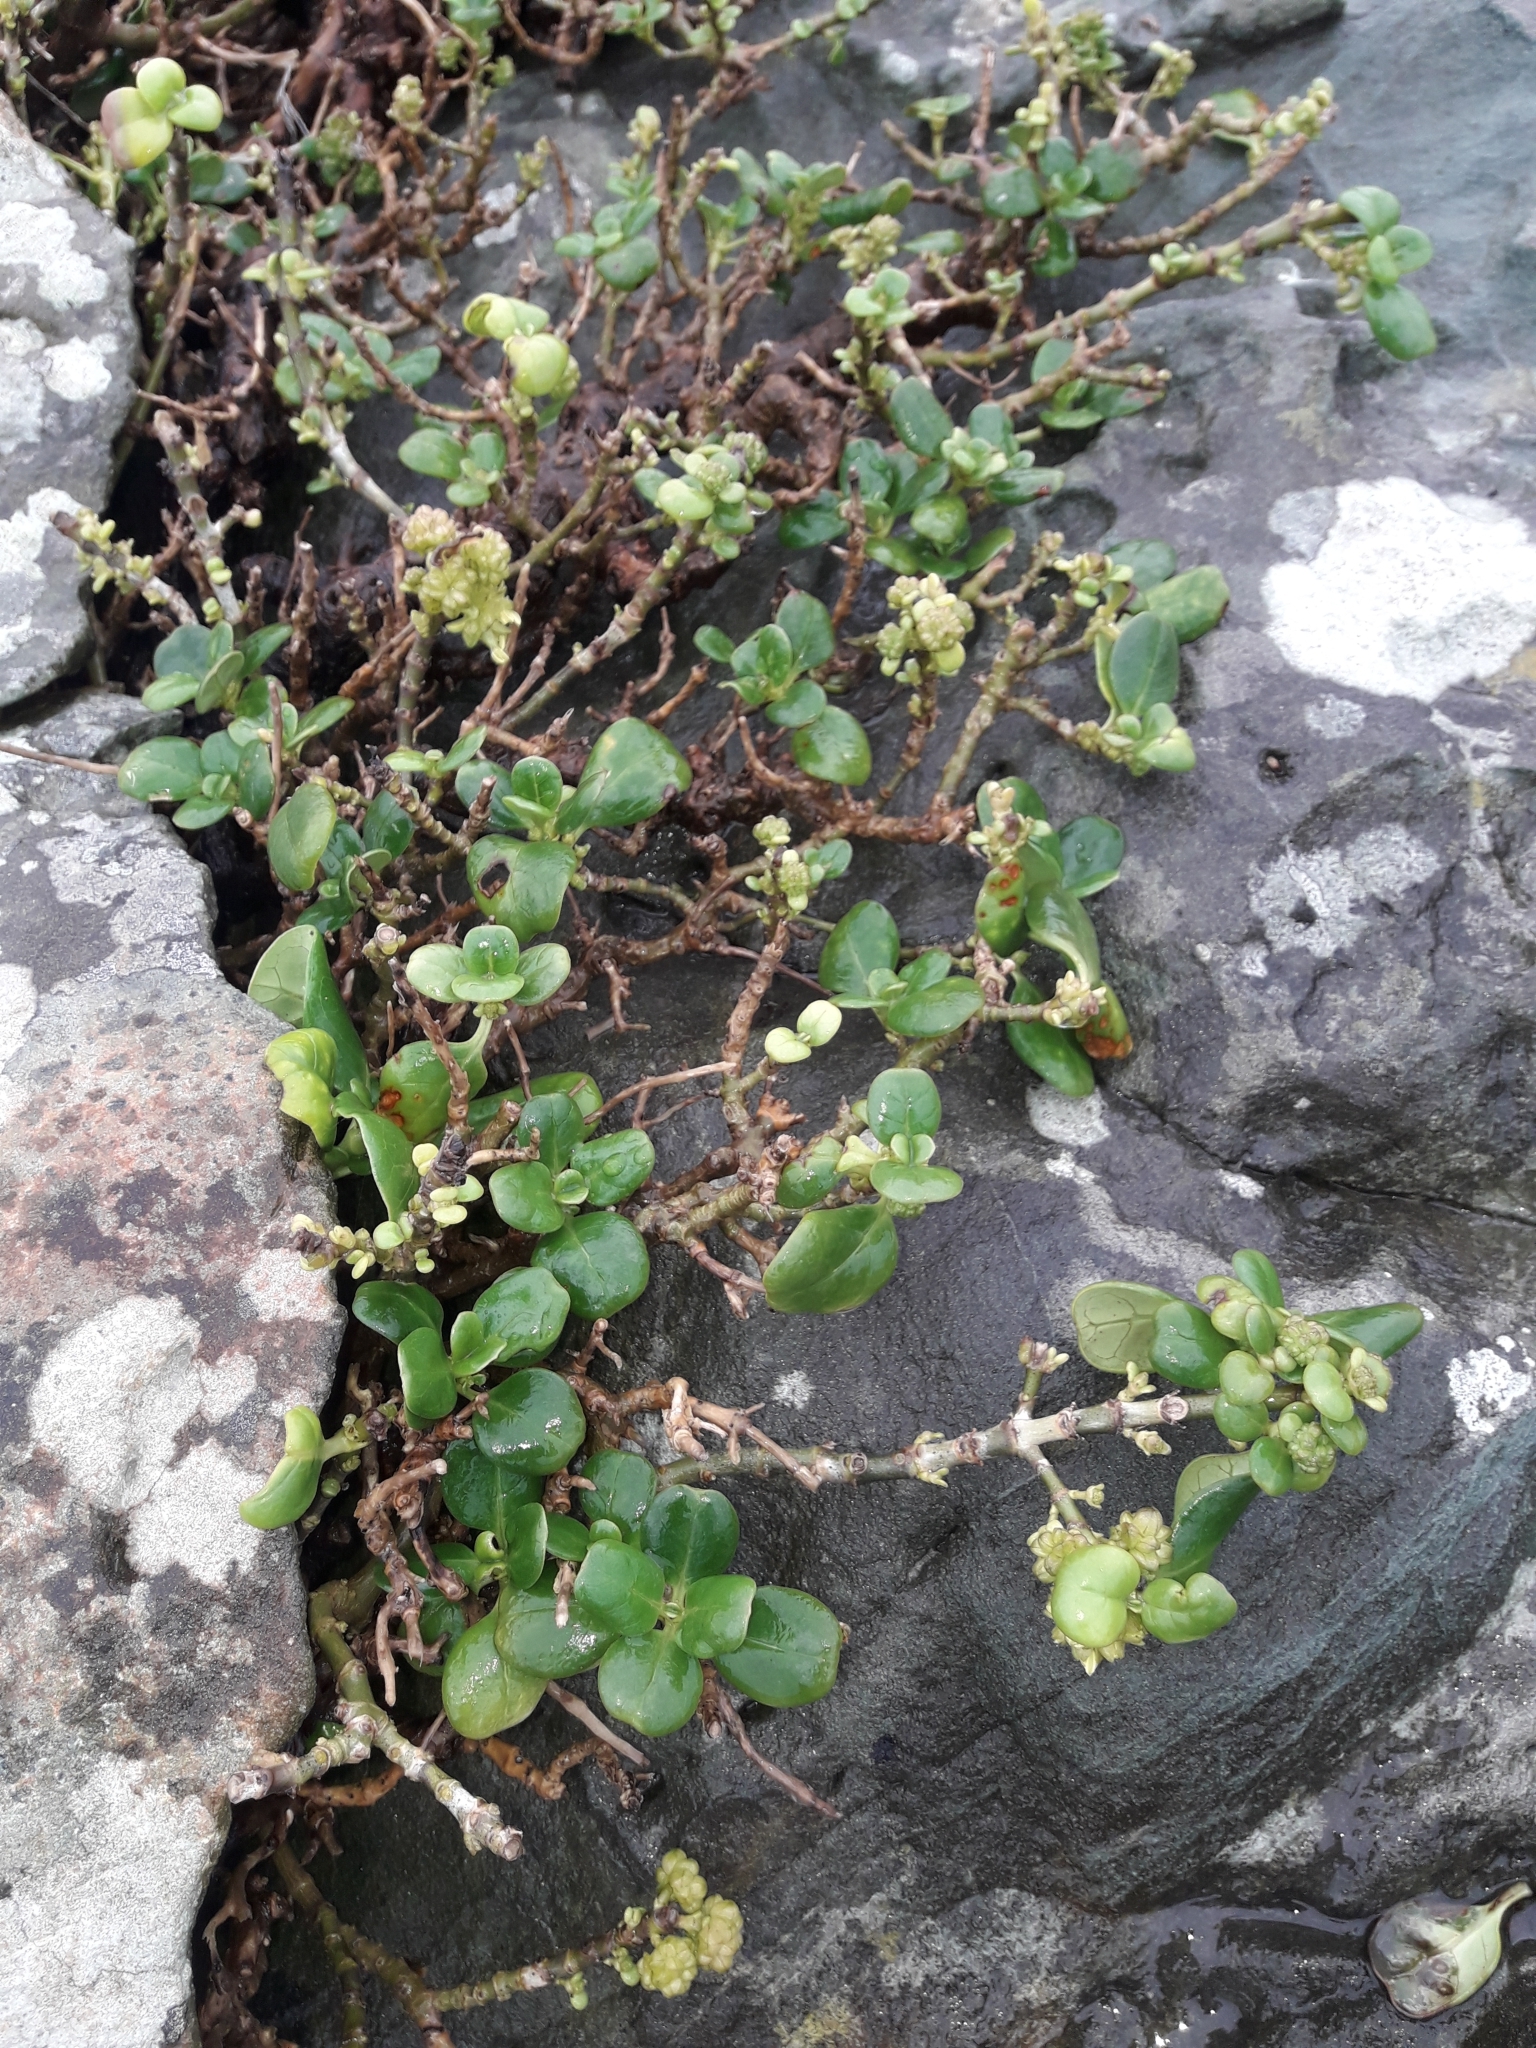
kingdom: Plantae
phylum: Tracheophyta
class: Magnoliopsida
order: Gentianales
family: Rubiaceae
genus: Coprosma
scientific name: Coprosma repens
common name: Tree bedstraw
